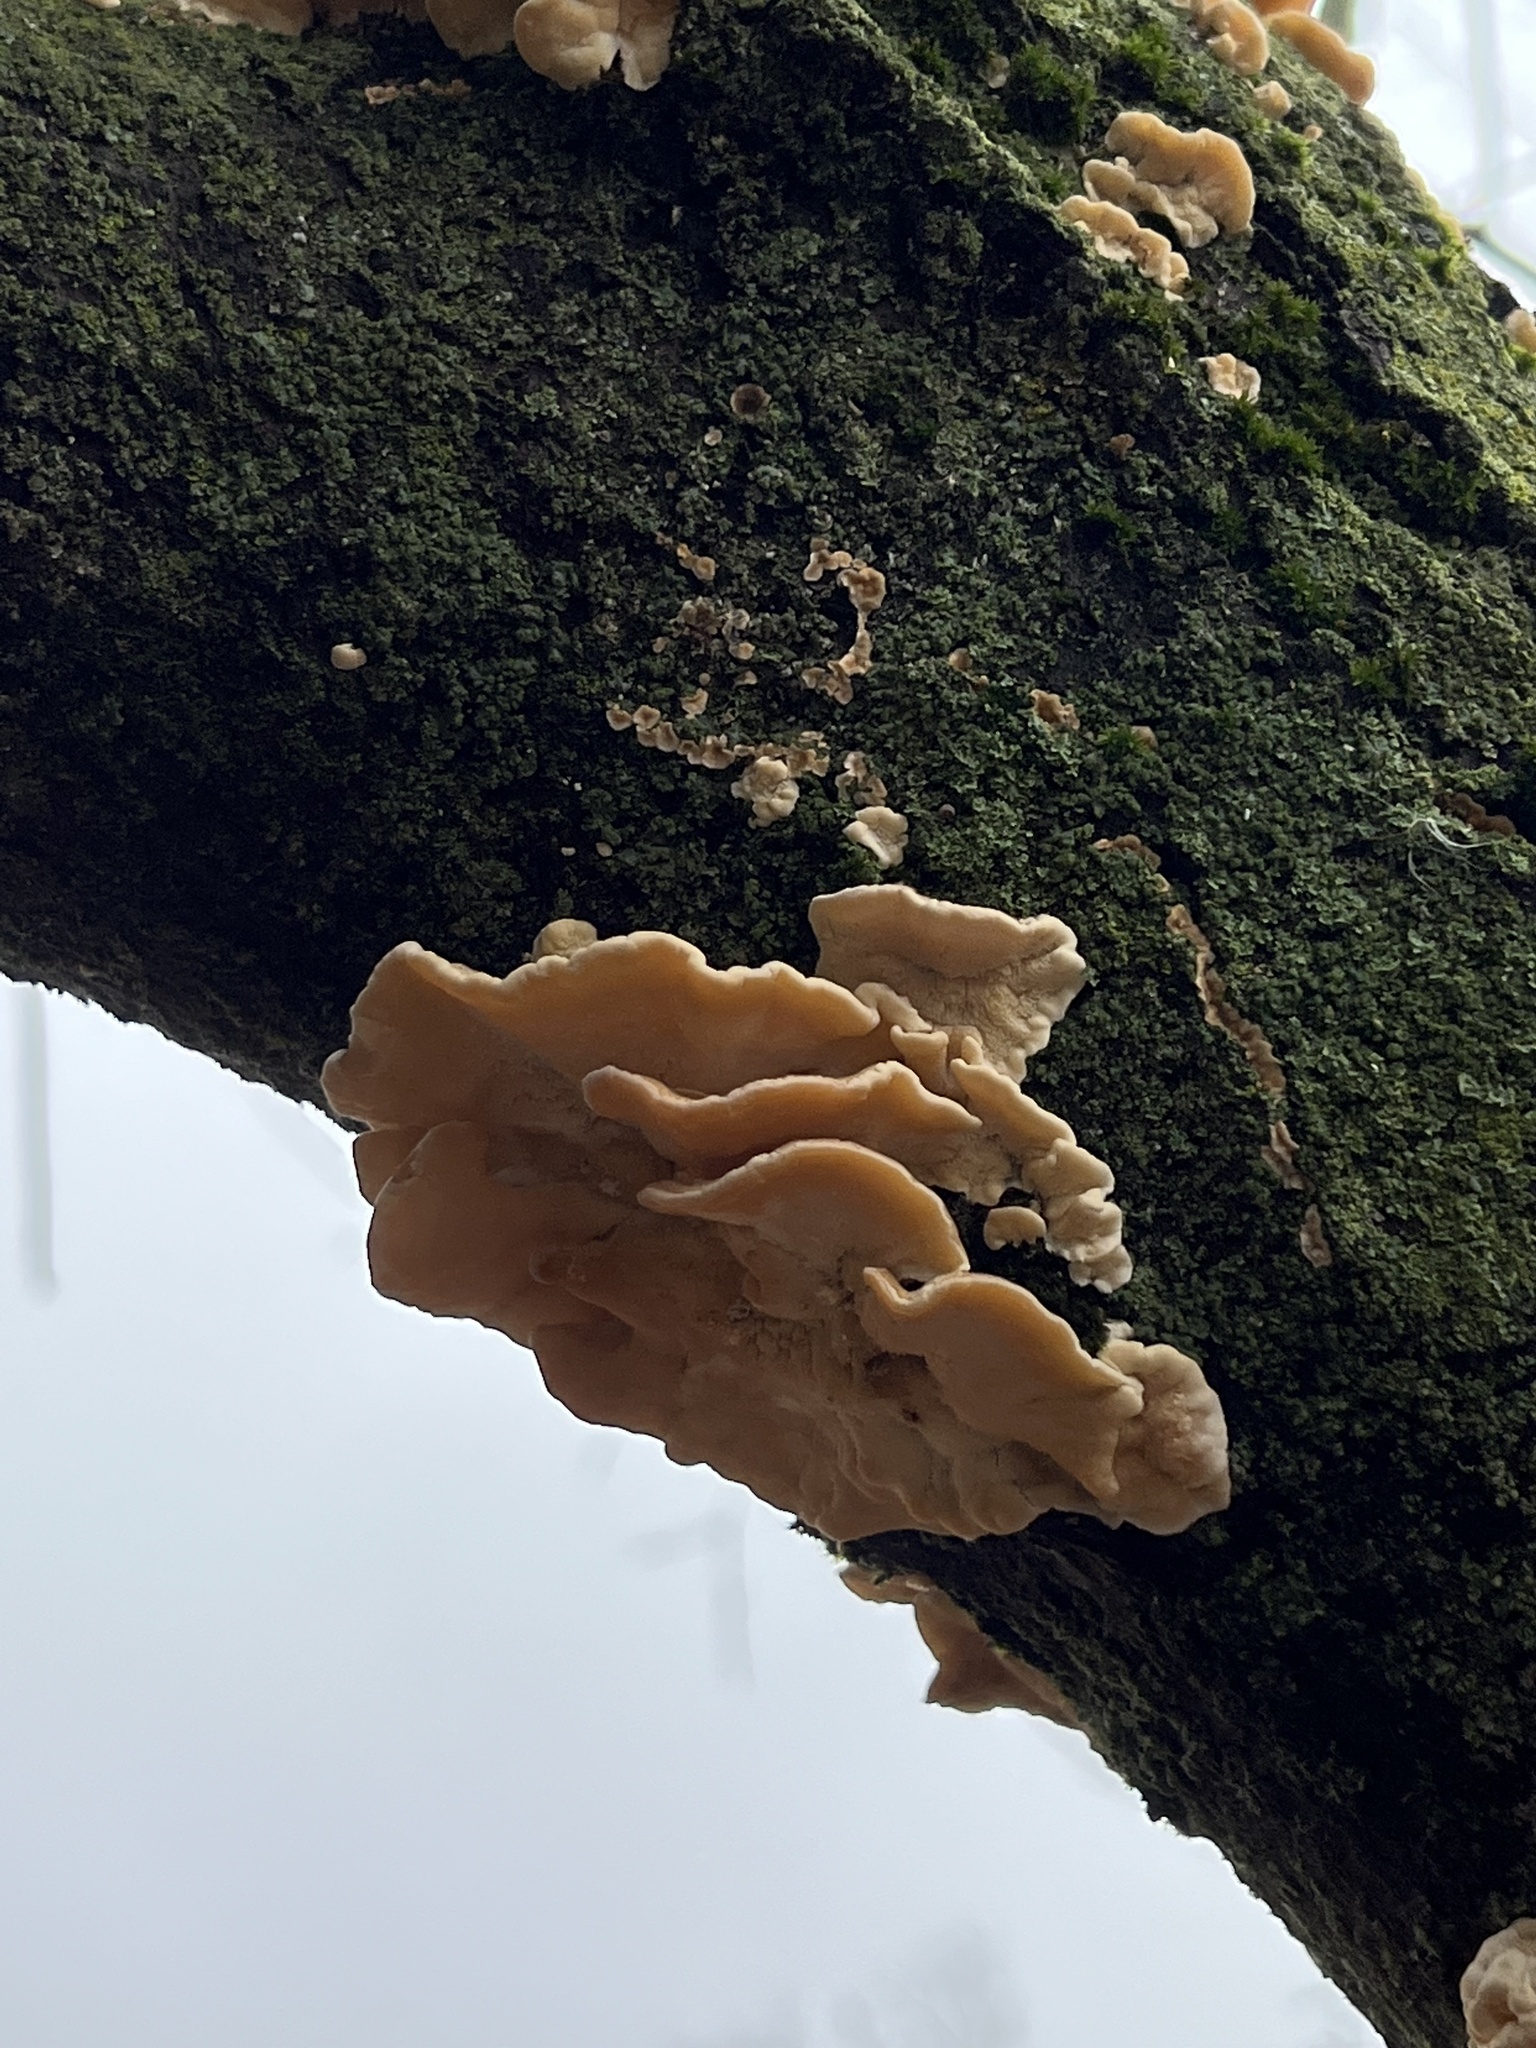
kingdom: Fungi
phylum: Basidiomycota
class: Agaricomycetes
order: Polyporales
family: Polyporaceae
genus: Trametes
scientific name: Trametes ochracea
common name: Ochre bracket
